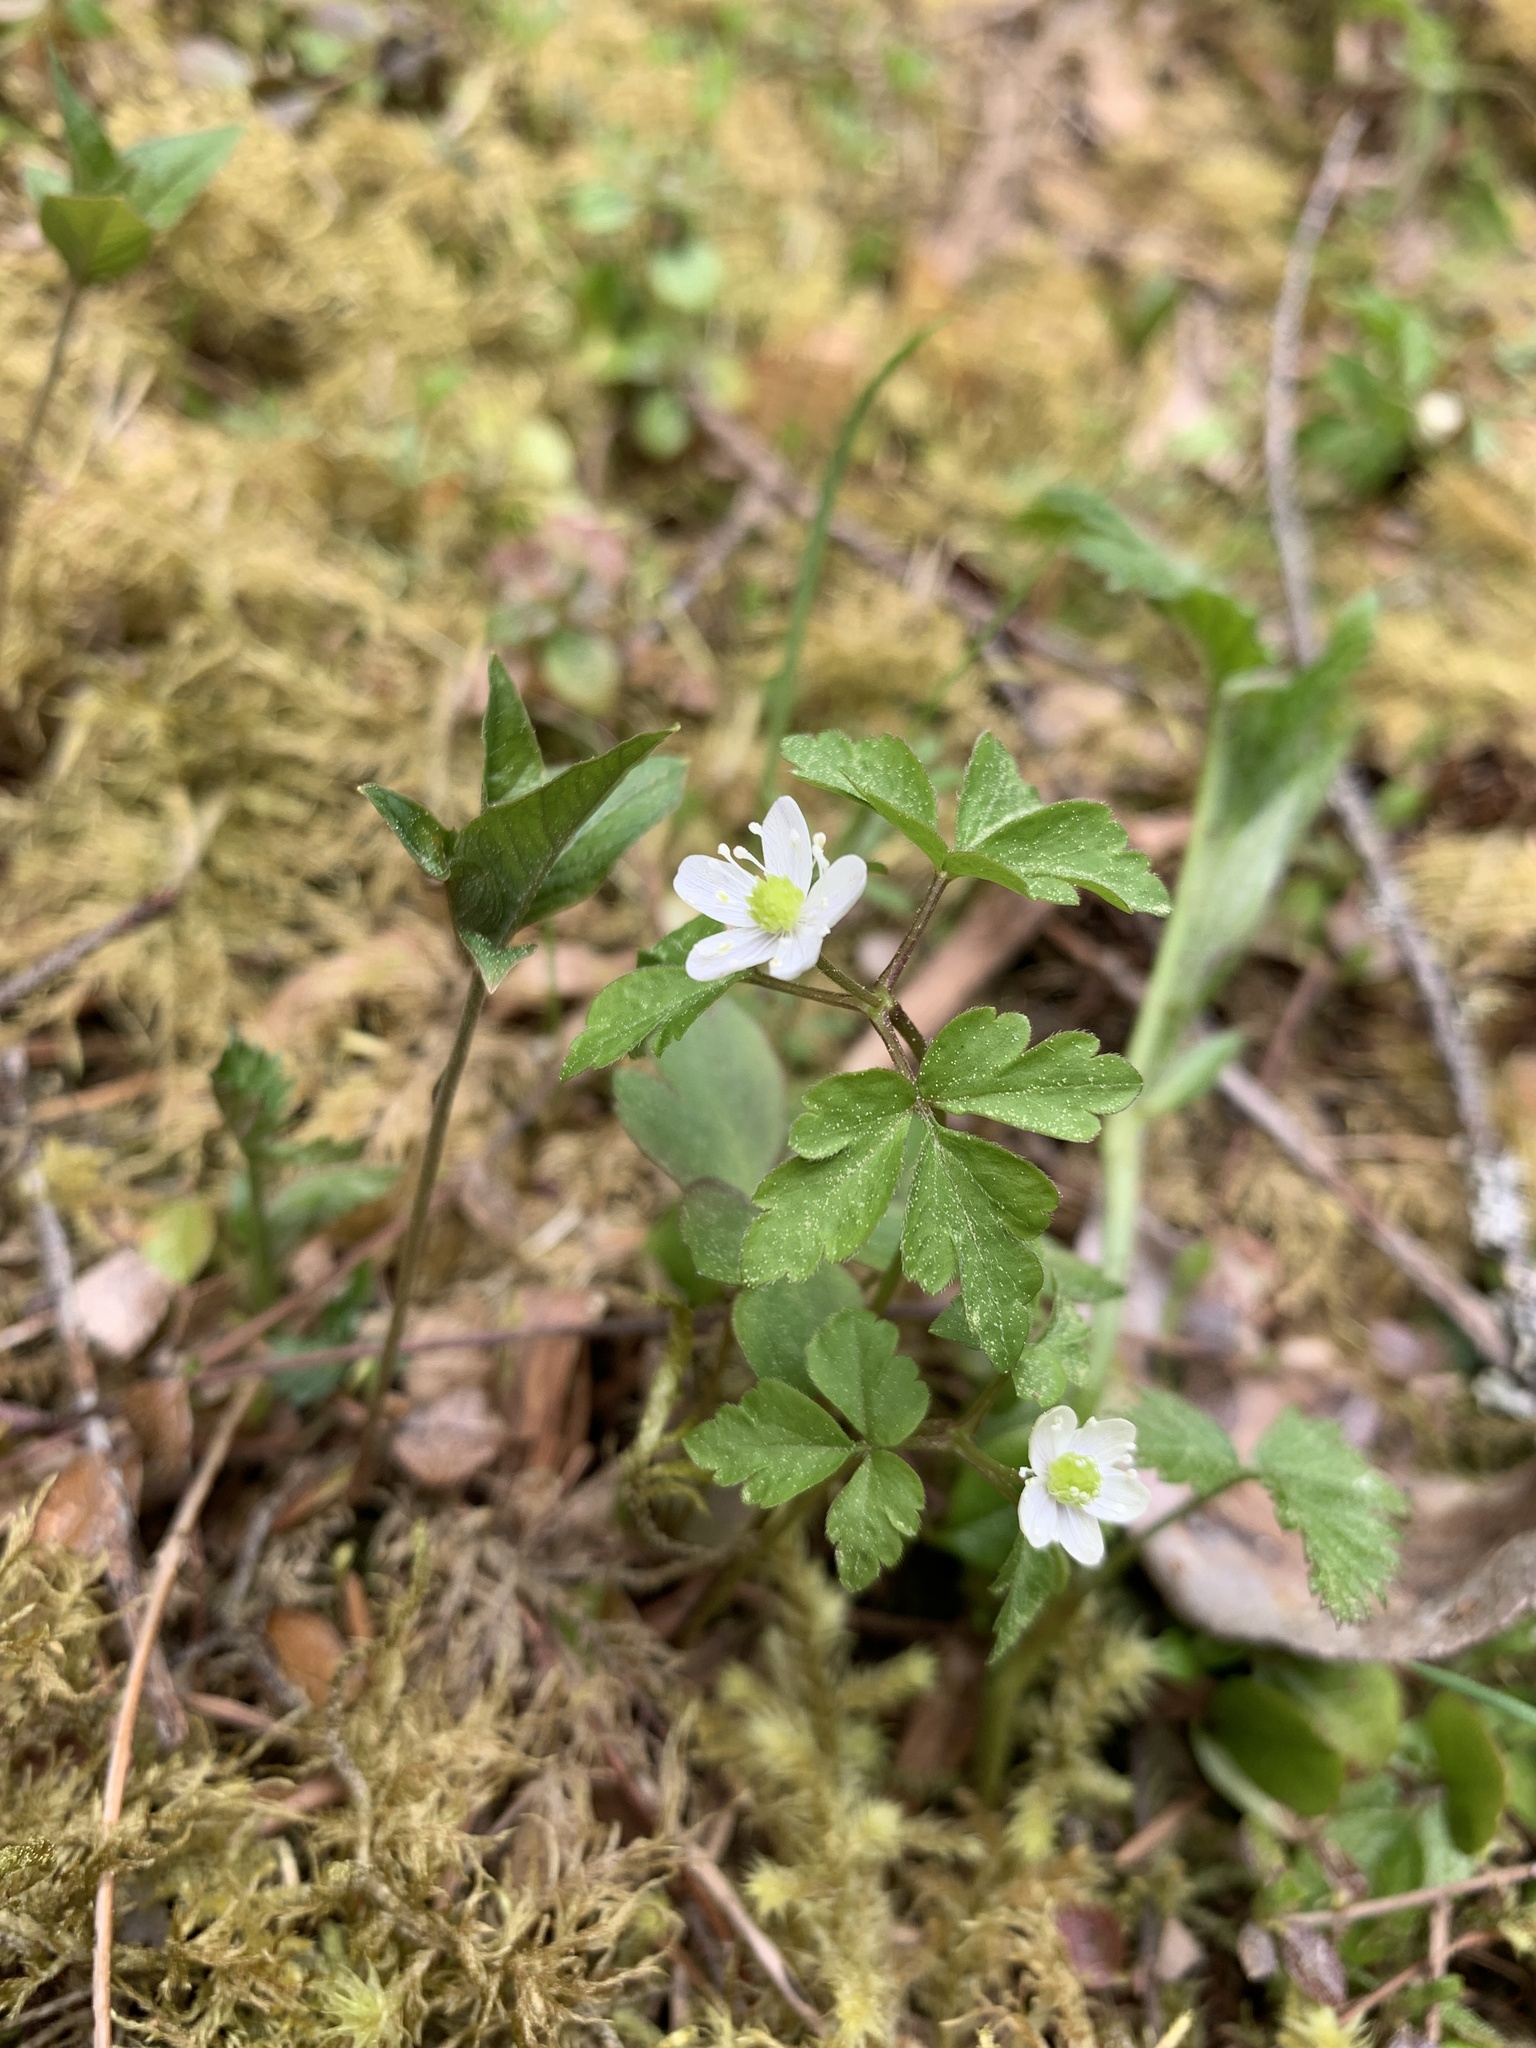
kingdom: Plantae
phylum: Tracheophyta
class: Magnoliopsida
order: Ranunculales
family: Ranunculaceae
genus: Anemone
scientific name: Anemone
